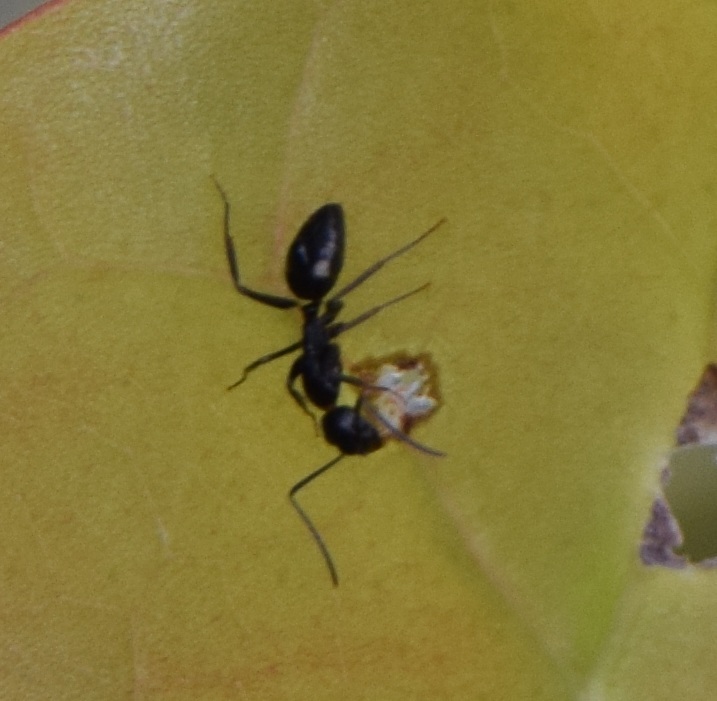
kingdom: Animalia
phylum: Arthropoda
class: Insecta
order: Hymenoptera
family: Formicidae
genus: Camponotus
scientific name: Camponotus sexguttatus
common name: Neotropical carpenter ant
